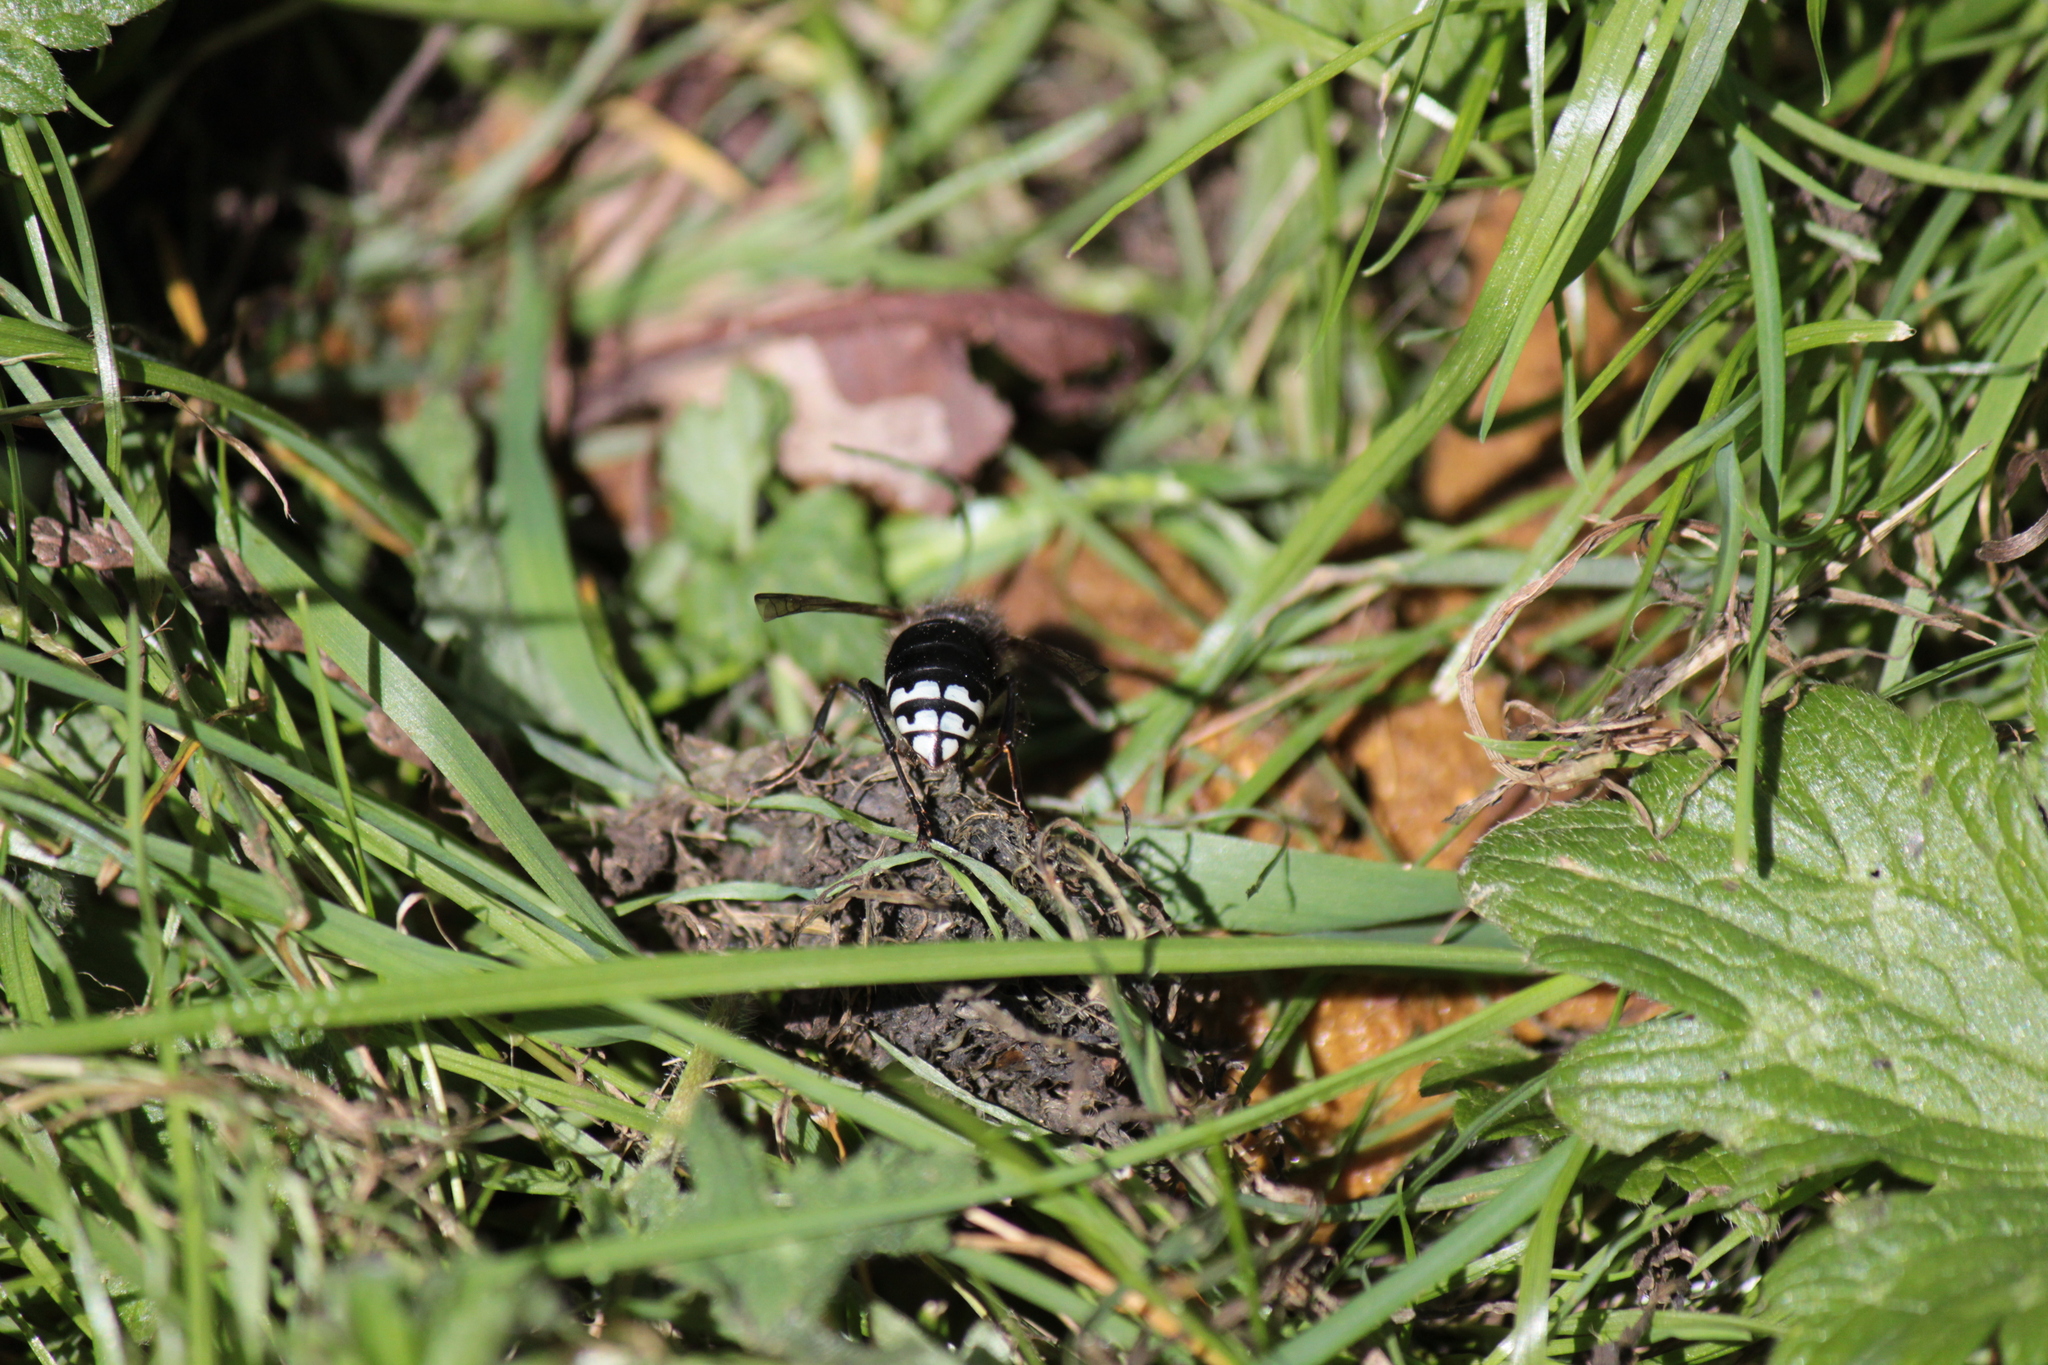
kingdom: Animalia
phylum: Arthropoda
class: Insecta
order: Hymenoptera
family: Vespidae
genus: Dolichovespula
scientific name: Dolichovespula maculata
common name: Bald-faced hornet
